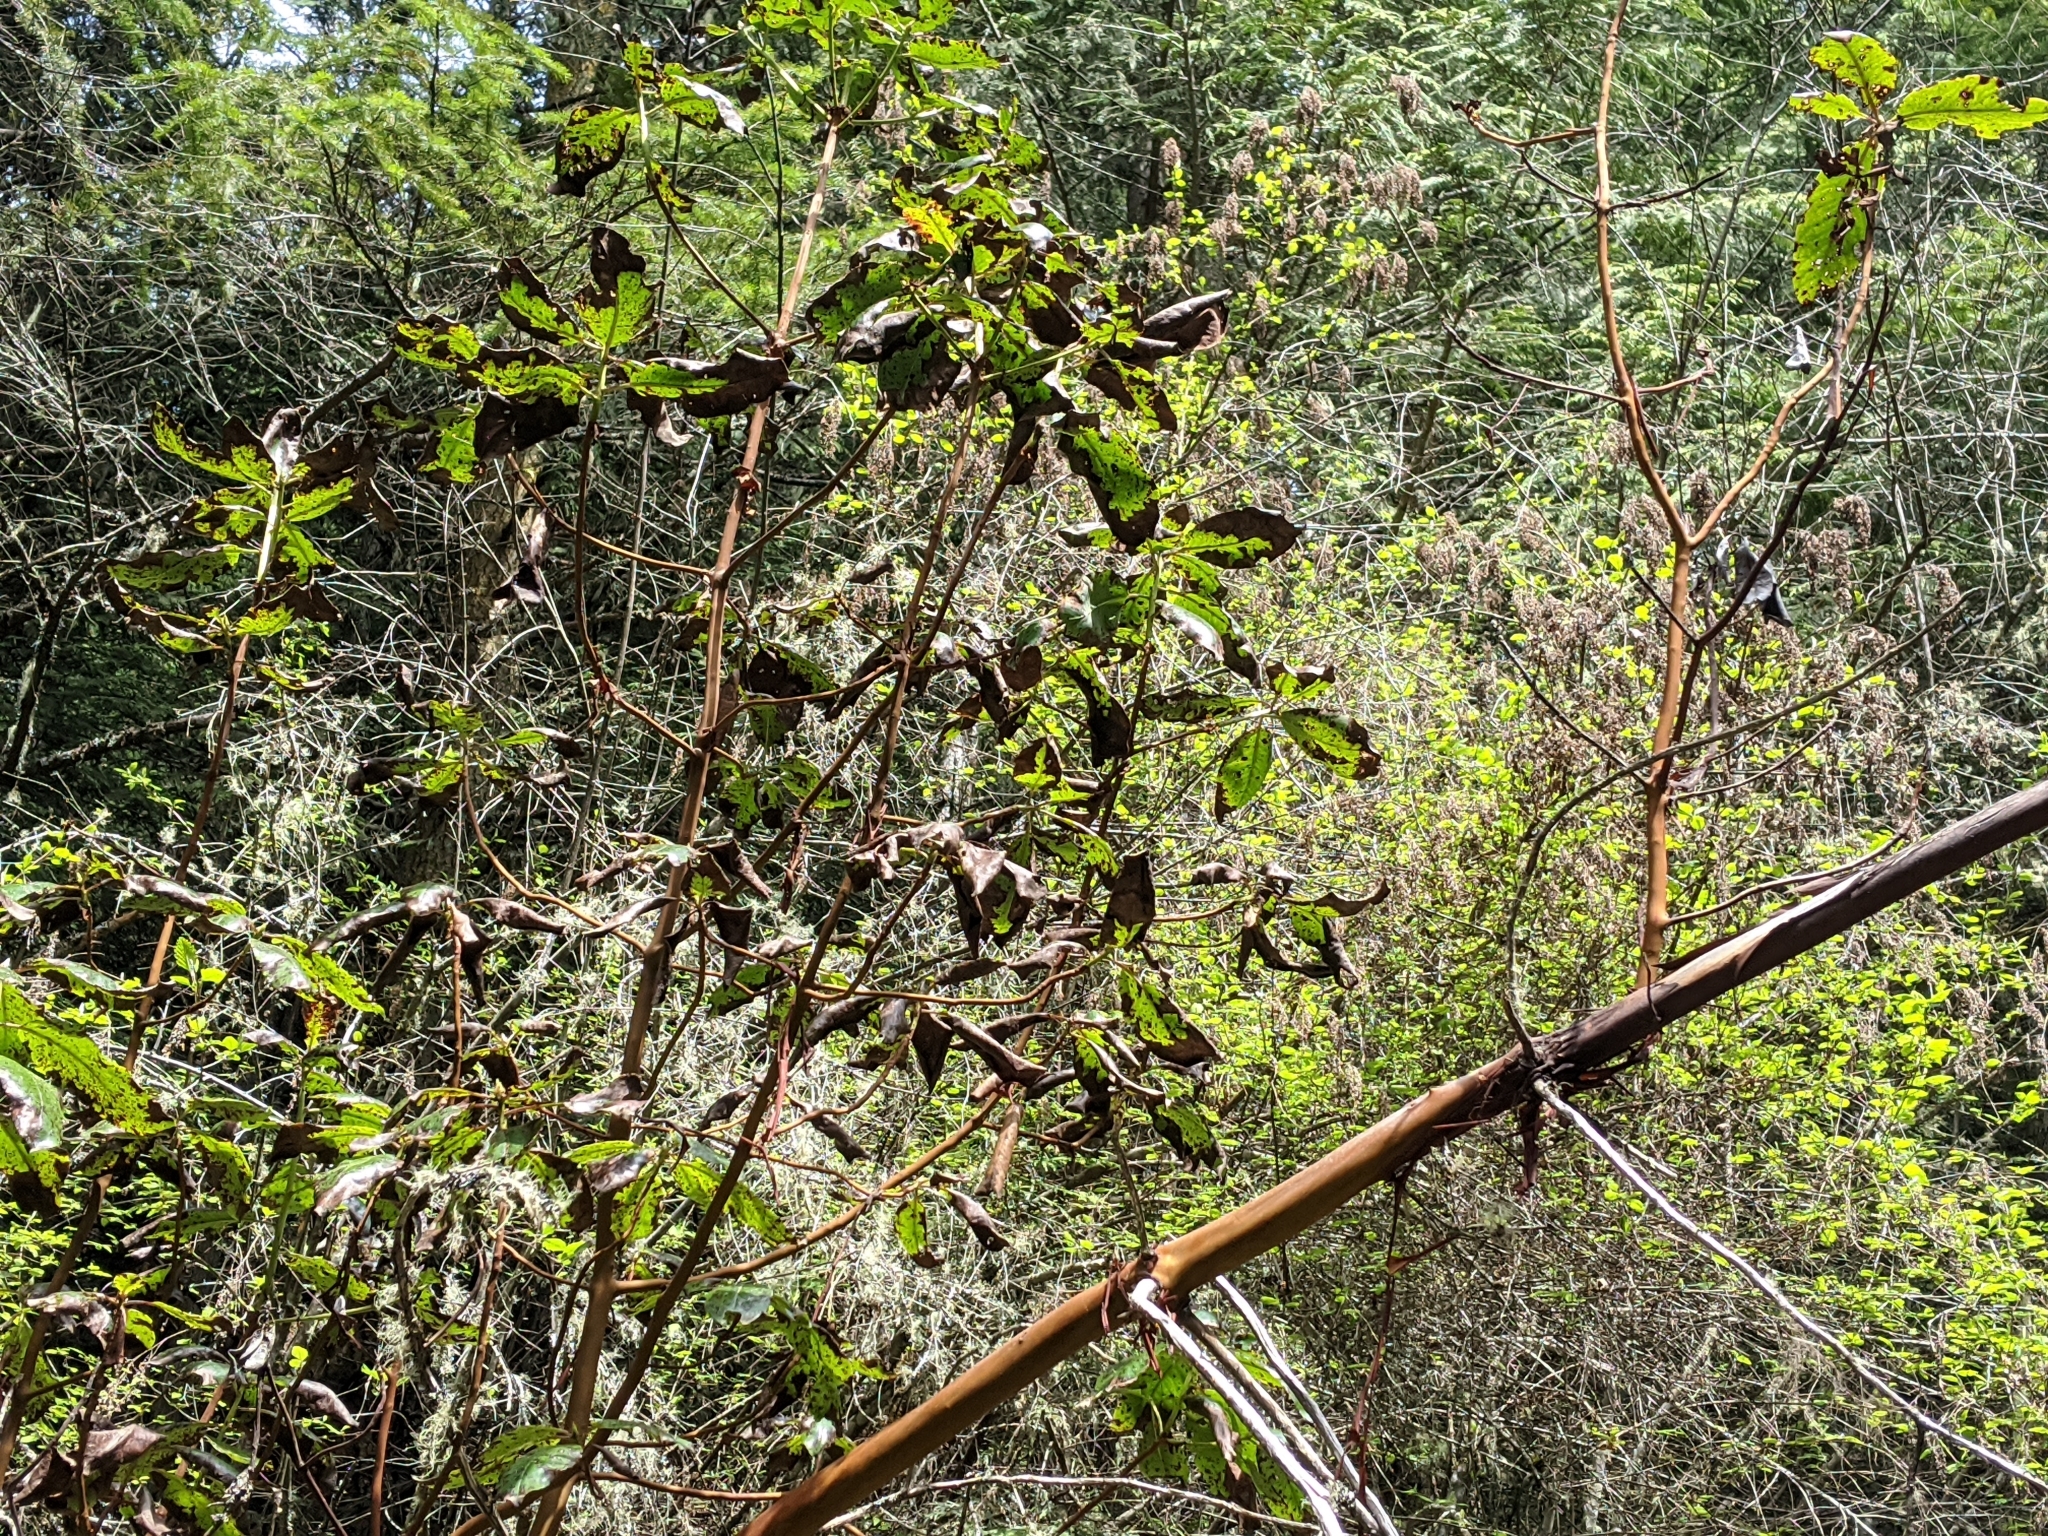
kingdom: Plantae
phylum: Tracheophyta
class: Magnoliopsida
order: Ericales
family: Ericaceae
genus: Arbutus
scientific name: Arbutus menziesii
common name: Pacific madrone
